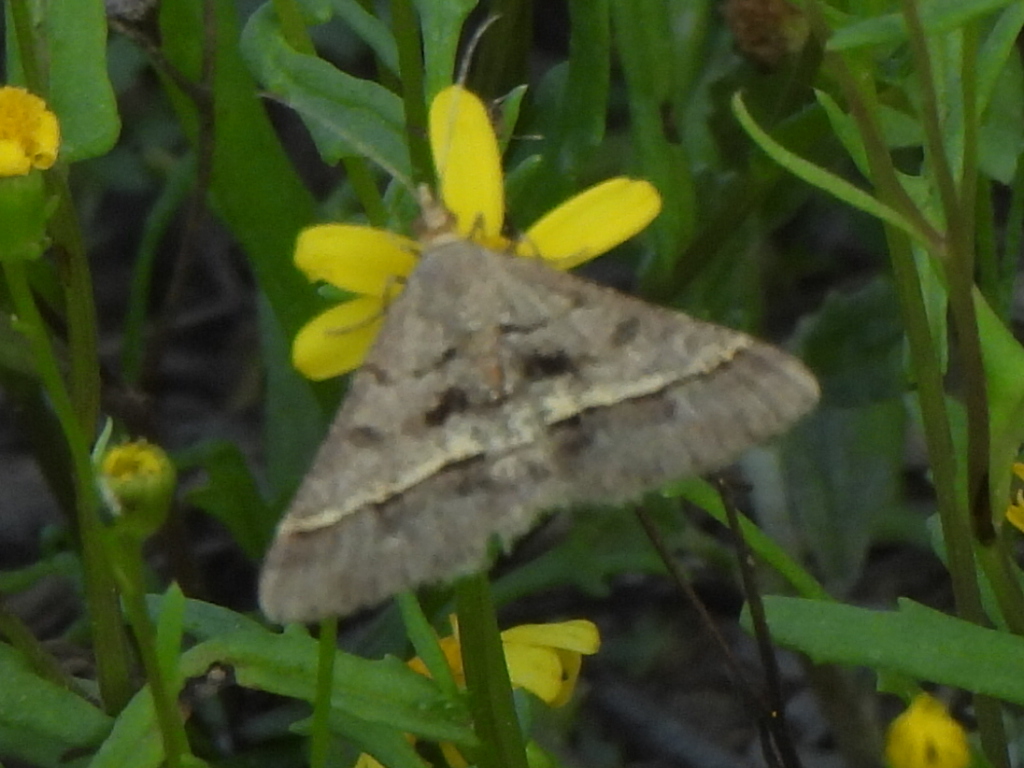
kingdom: Animalia
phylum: Arthropoda
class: Insecta
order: Lepidoptera
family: Geometridae
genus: Isturgia
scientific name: Isturgia disputaria
